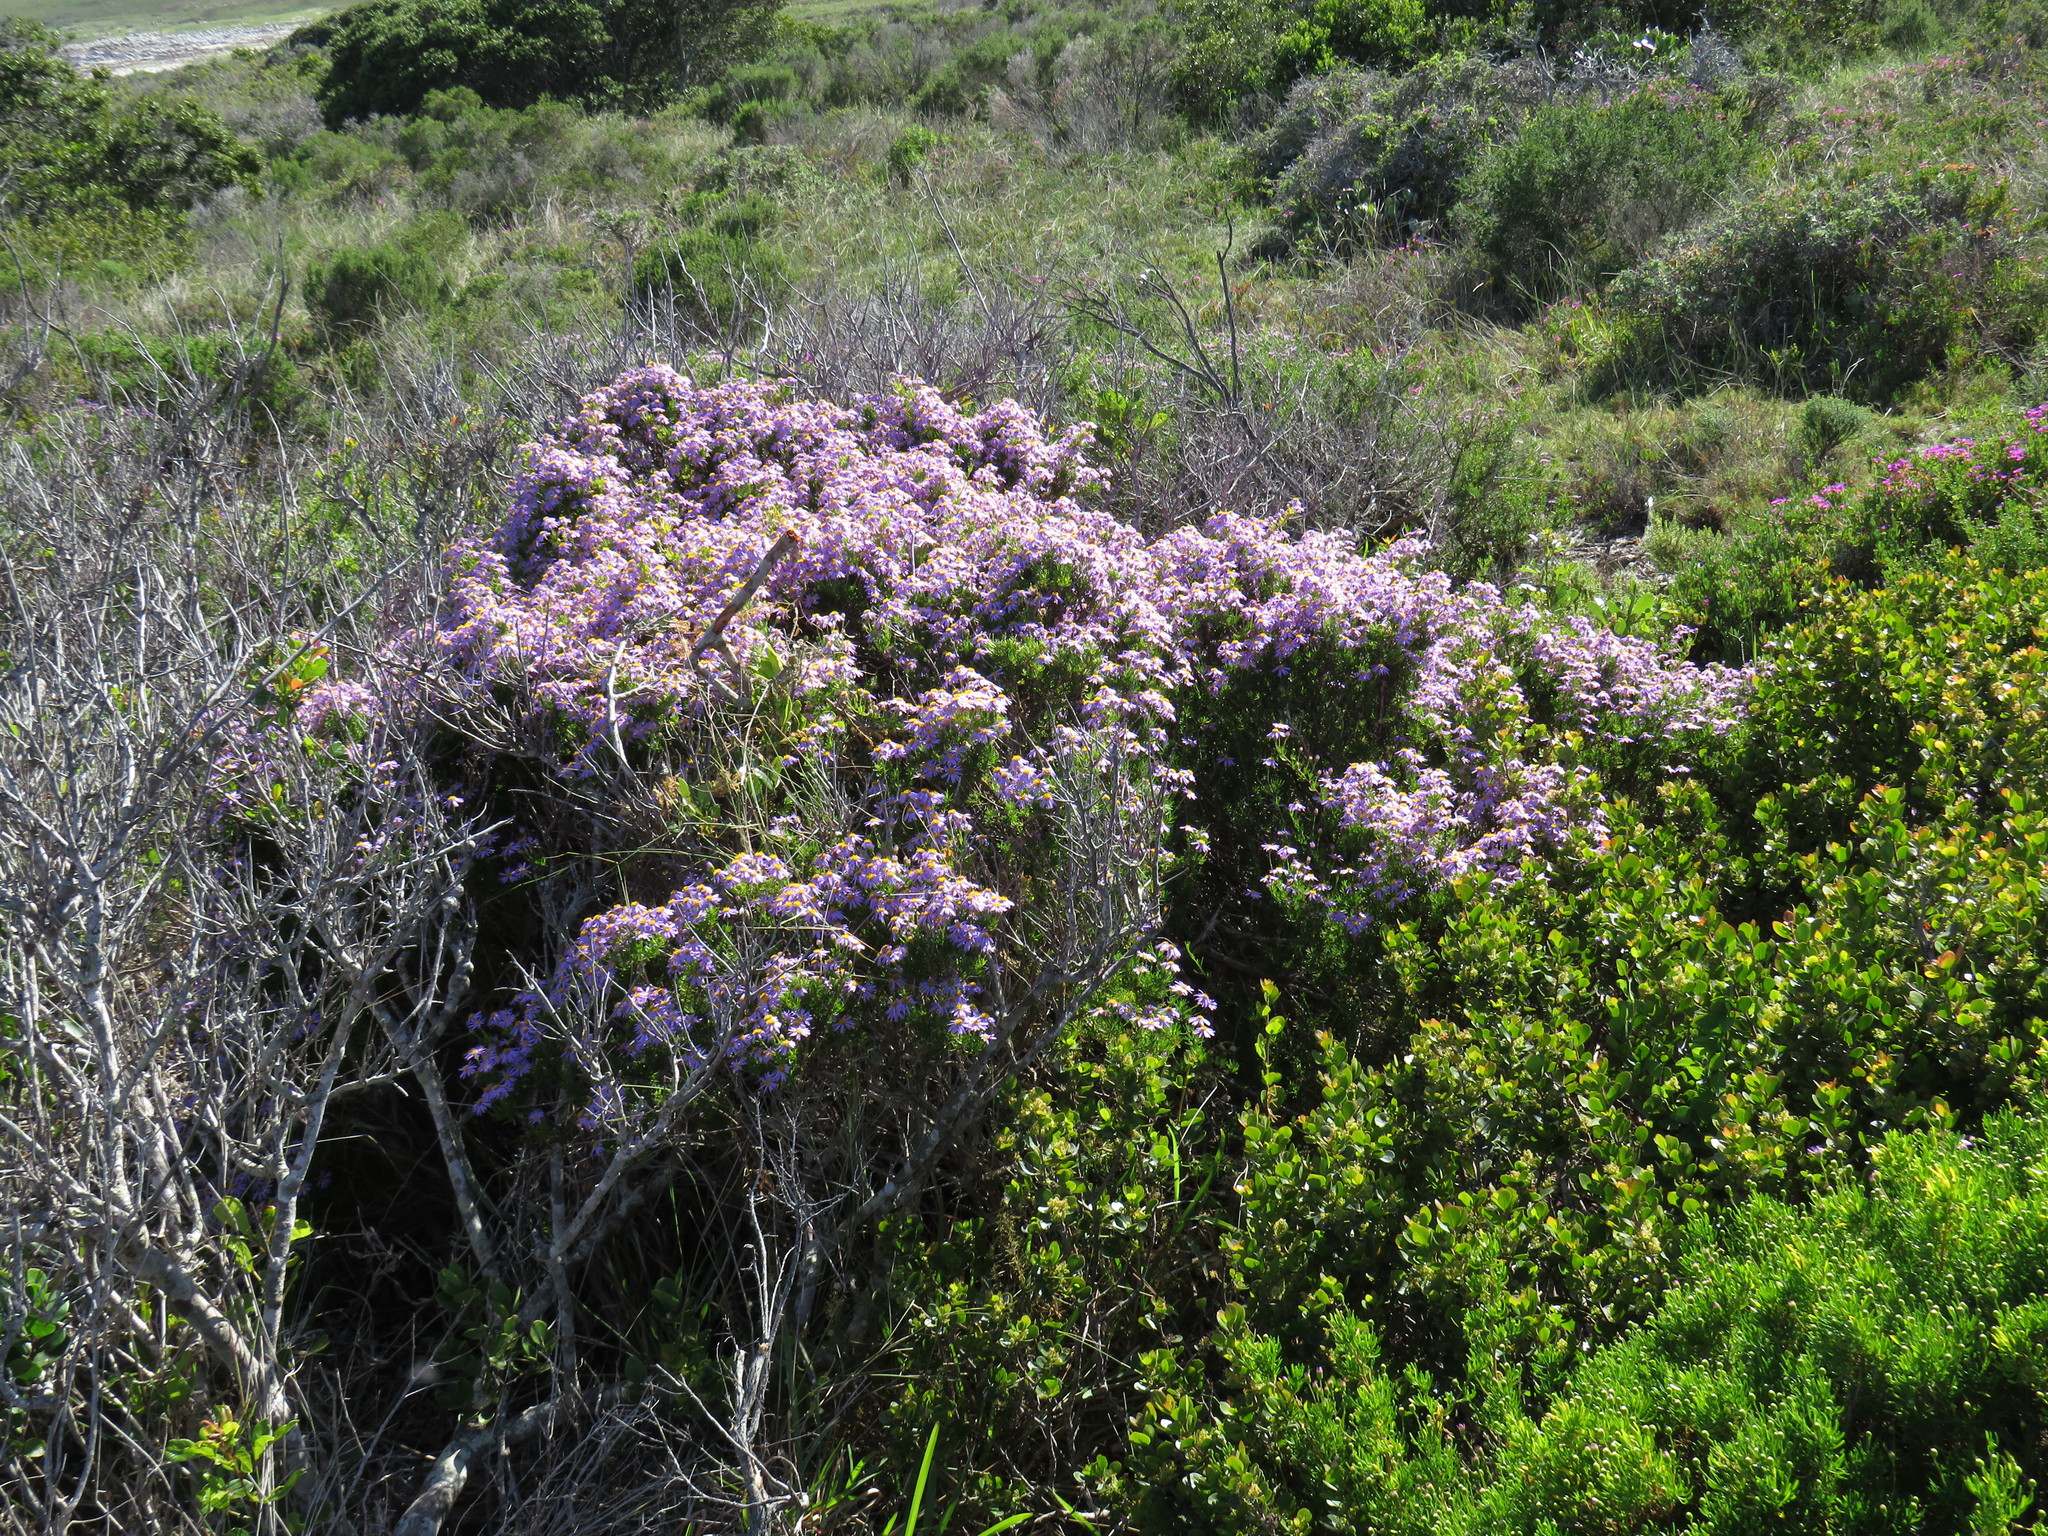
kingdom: Plantae
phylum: Tracheophyta
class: Magnoliopsida
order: Asterales
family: Asteraceae
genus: Felicia
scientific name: Felicia fruticosa
